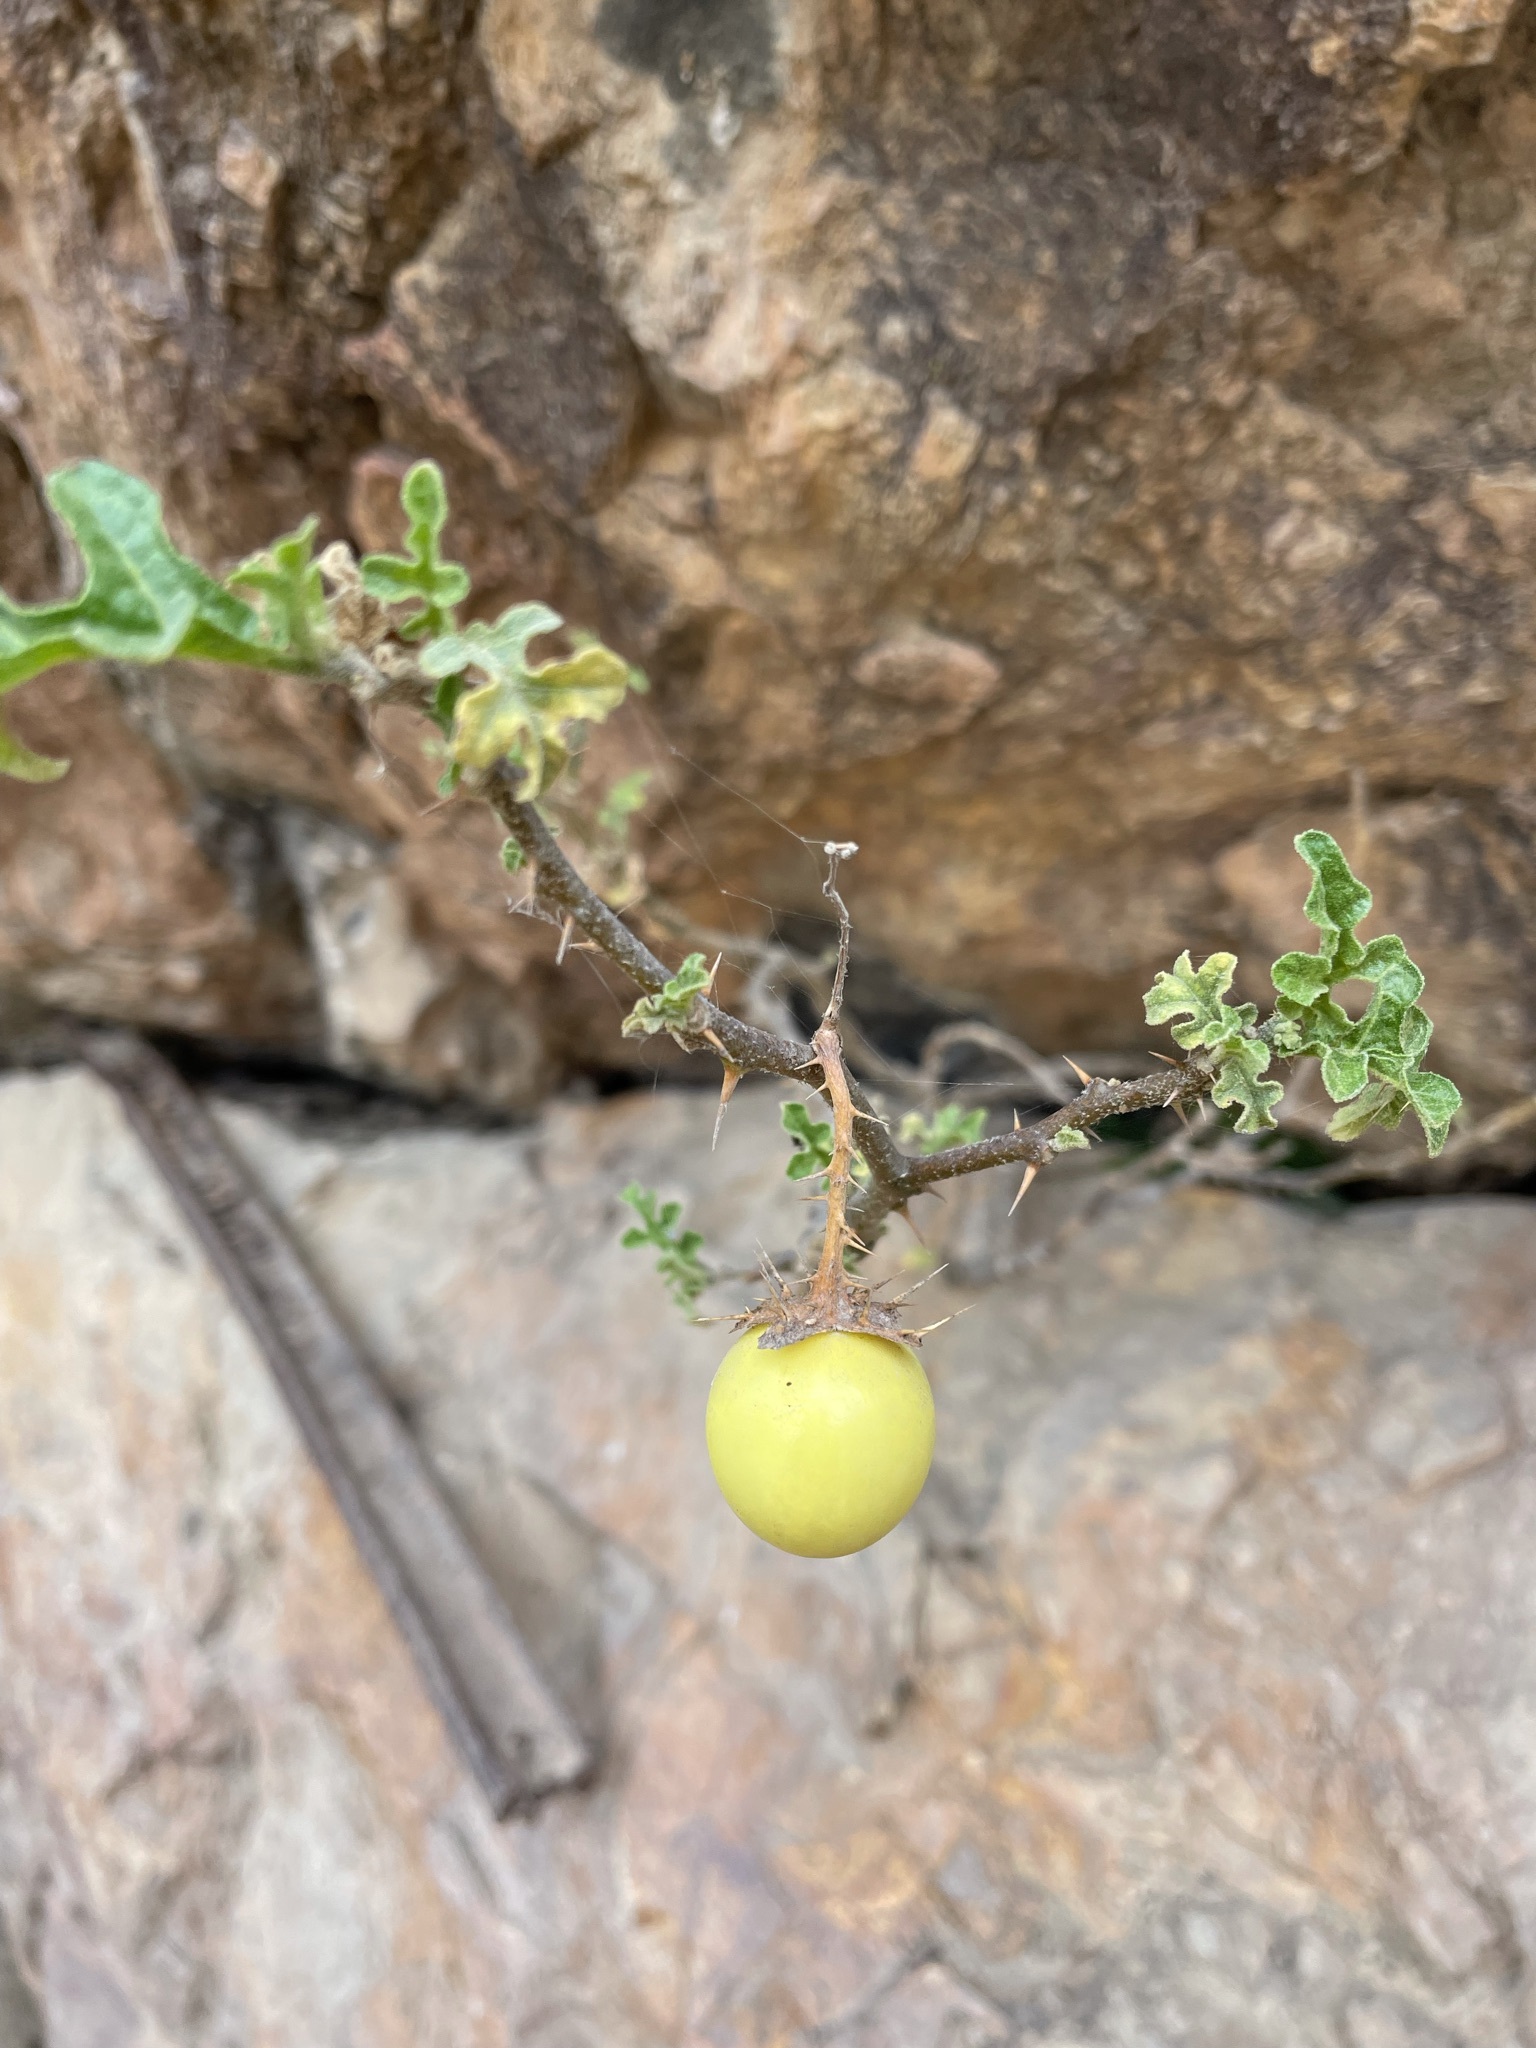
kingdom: Plantae
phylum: Tracheophyta
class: Magnoliopsida
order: Solanales
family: Solanaceae
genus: Solanum
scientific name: Solanum linnaeanum
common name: Nightshade
